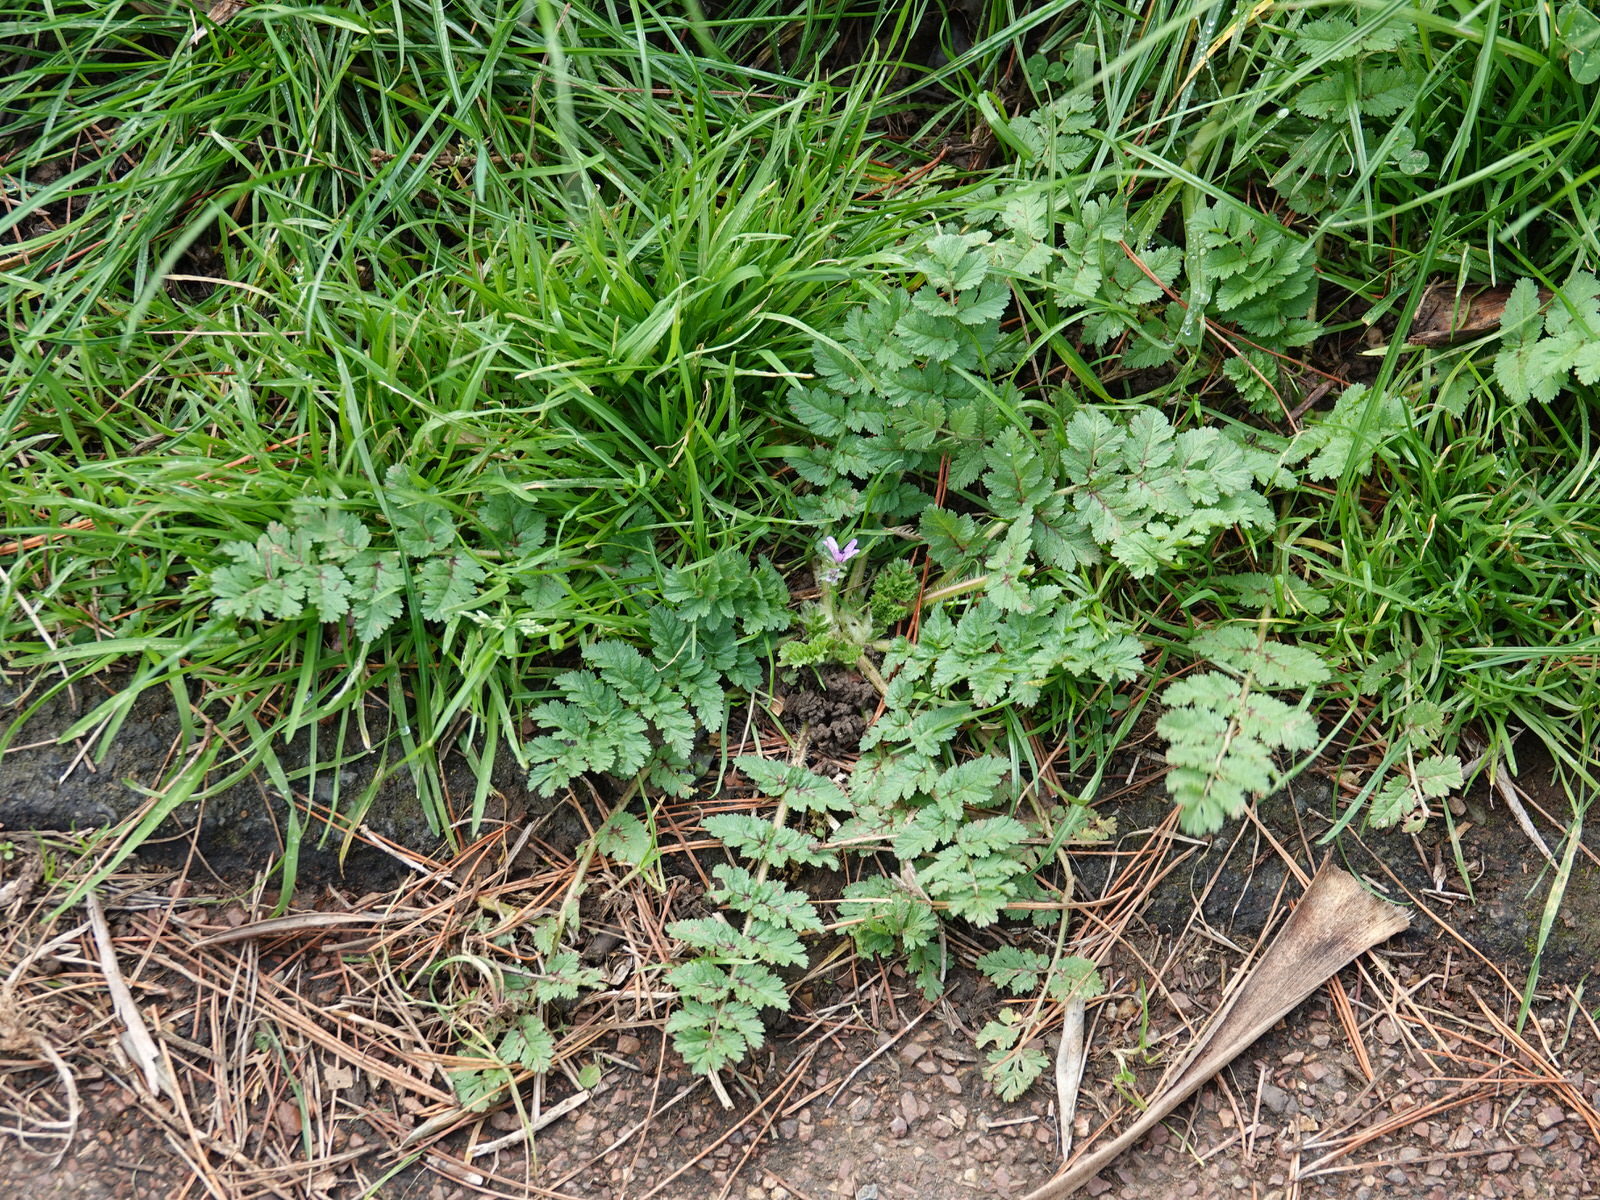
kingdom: Plantae
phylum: Tracheophyta
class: Magnoliopsida
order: Geraniales
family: Geraniaceae
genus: Erodium
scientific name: Erodium moschatum
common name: Musk stork's-bill
